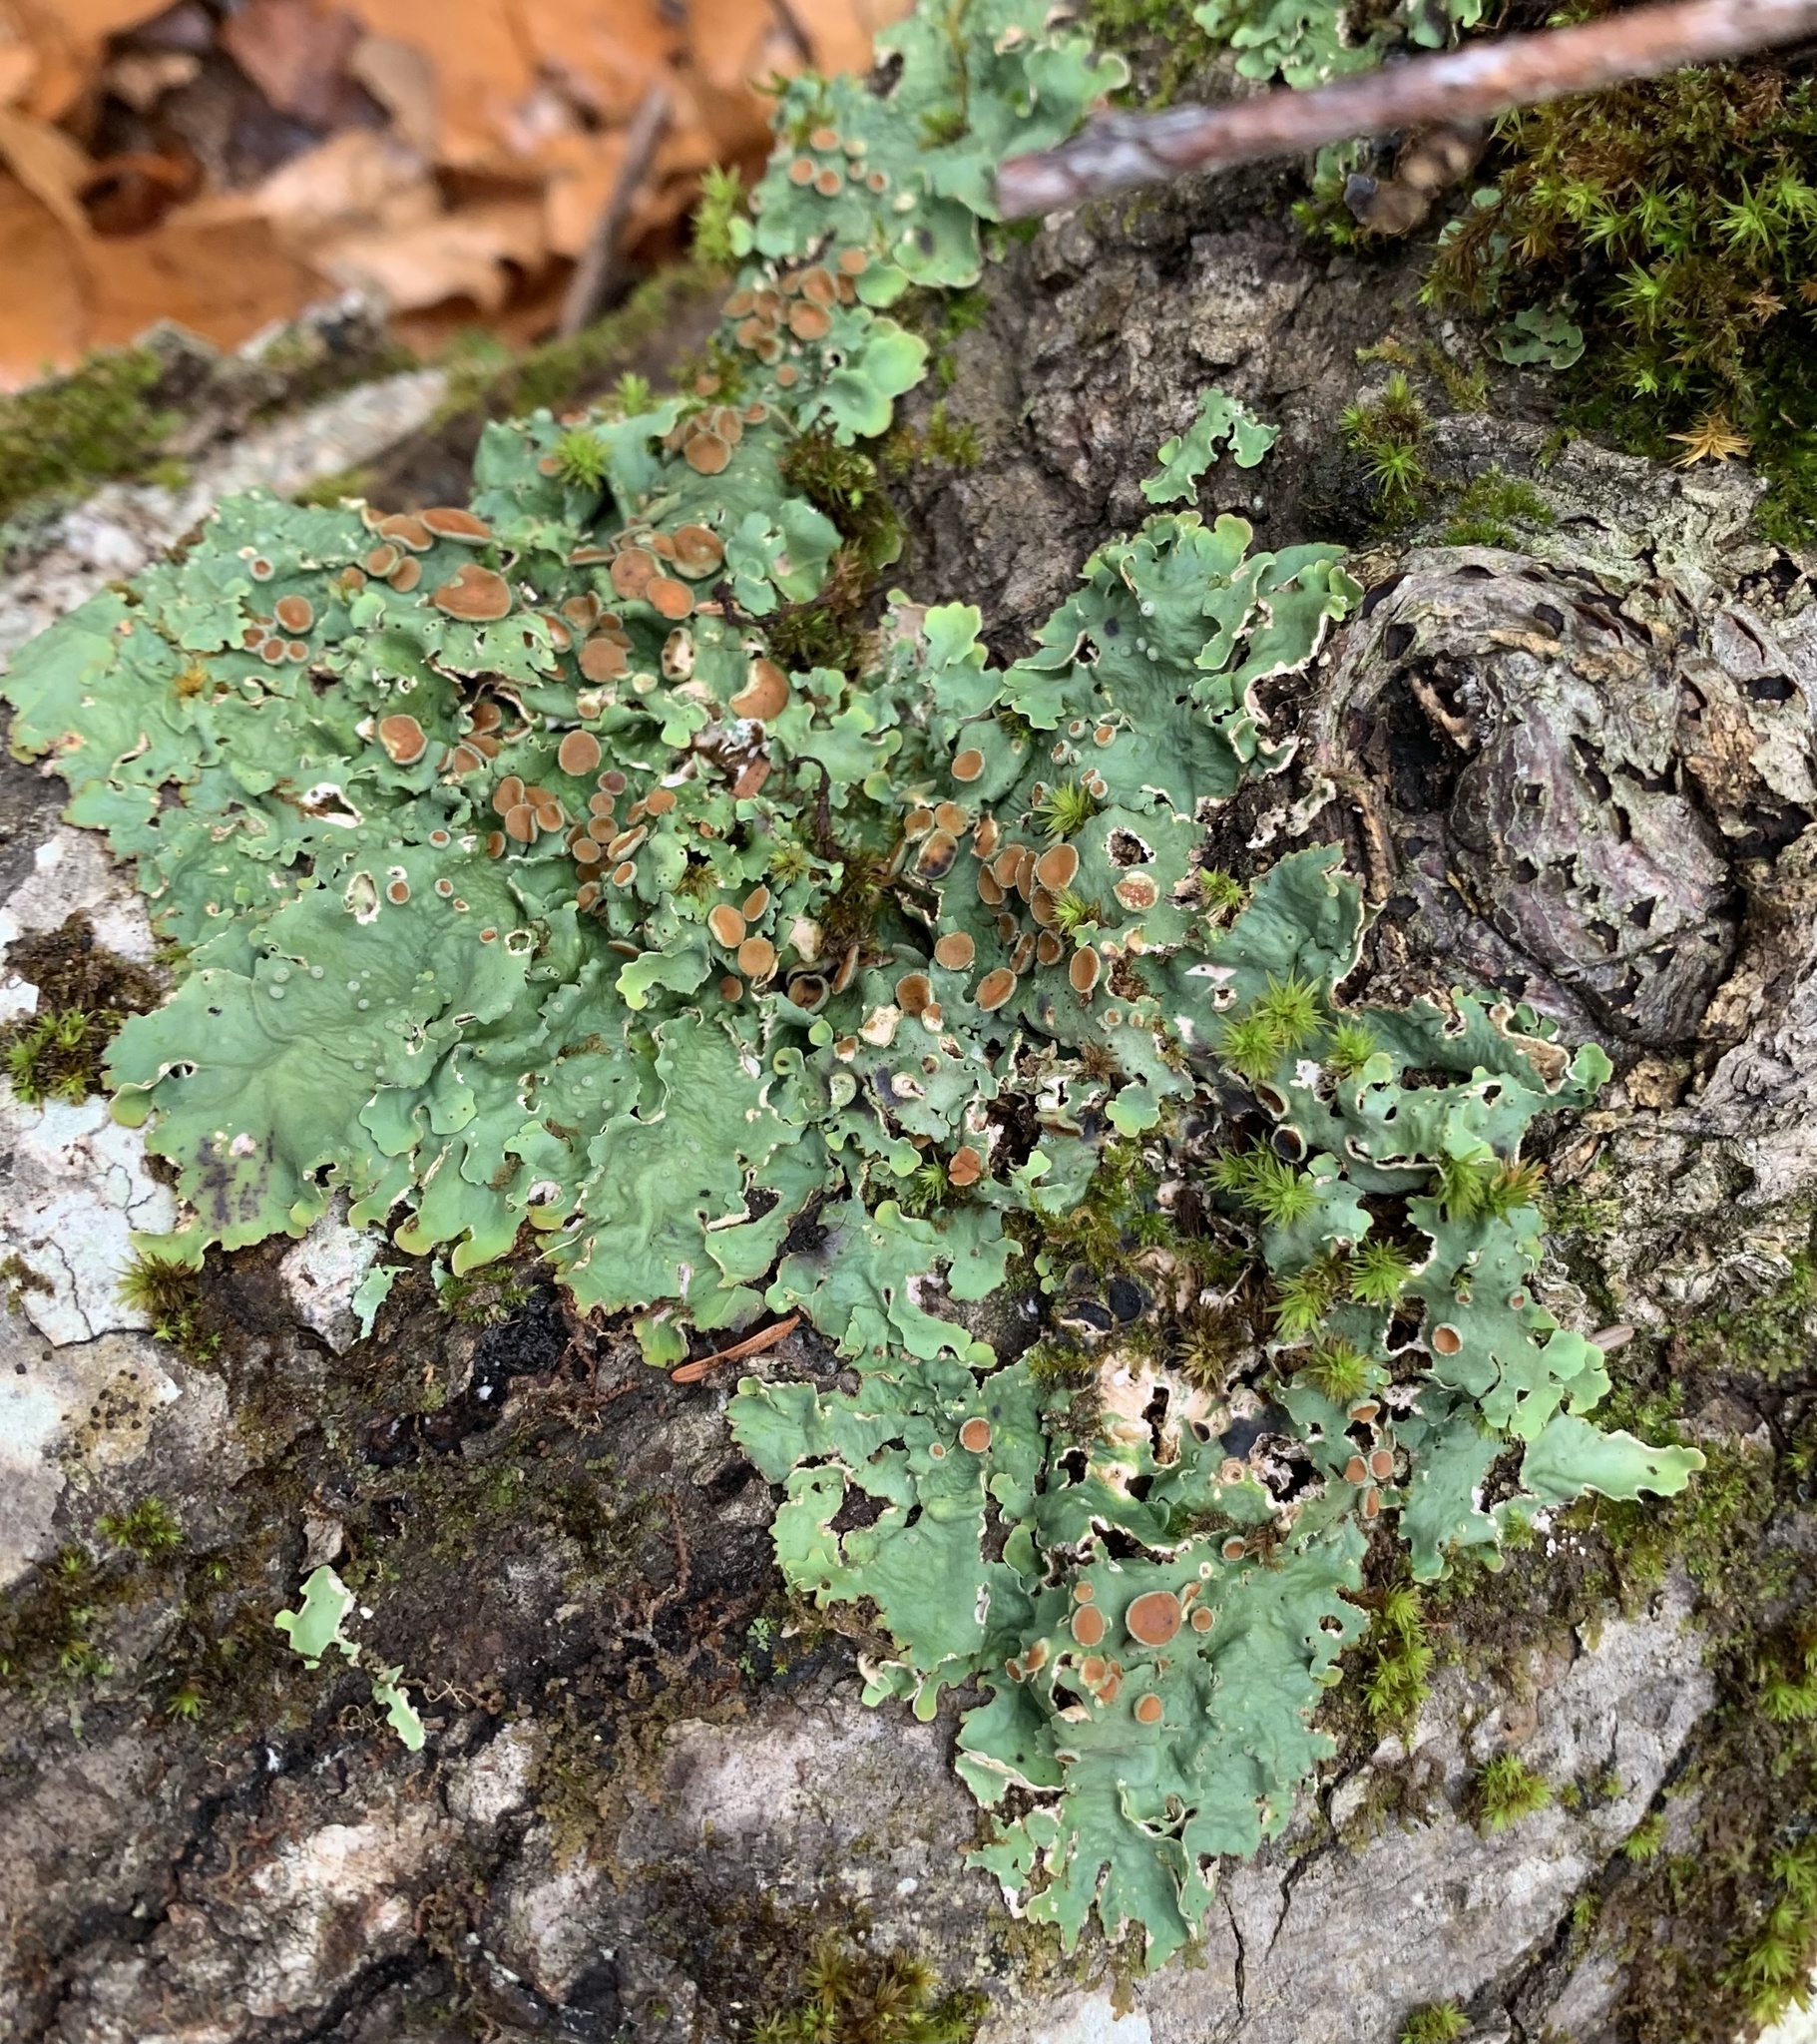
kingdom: Fungi
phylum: Ascomycota
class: Lecanoromycetes
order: Peltigerales
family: Lobariaceae
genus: Ricasolia
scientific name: Ricasolia quercizans
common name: Smooth lungwort
